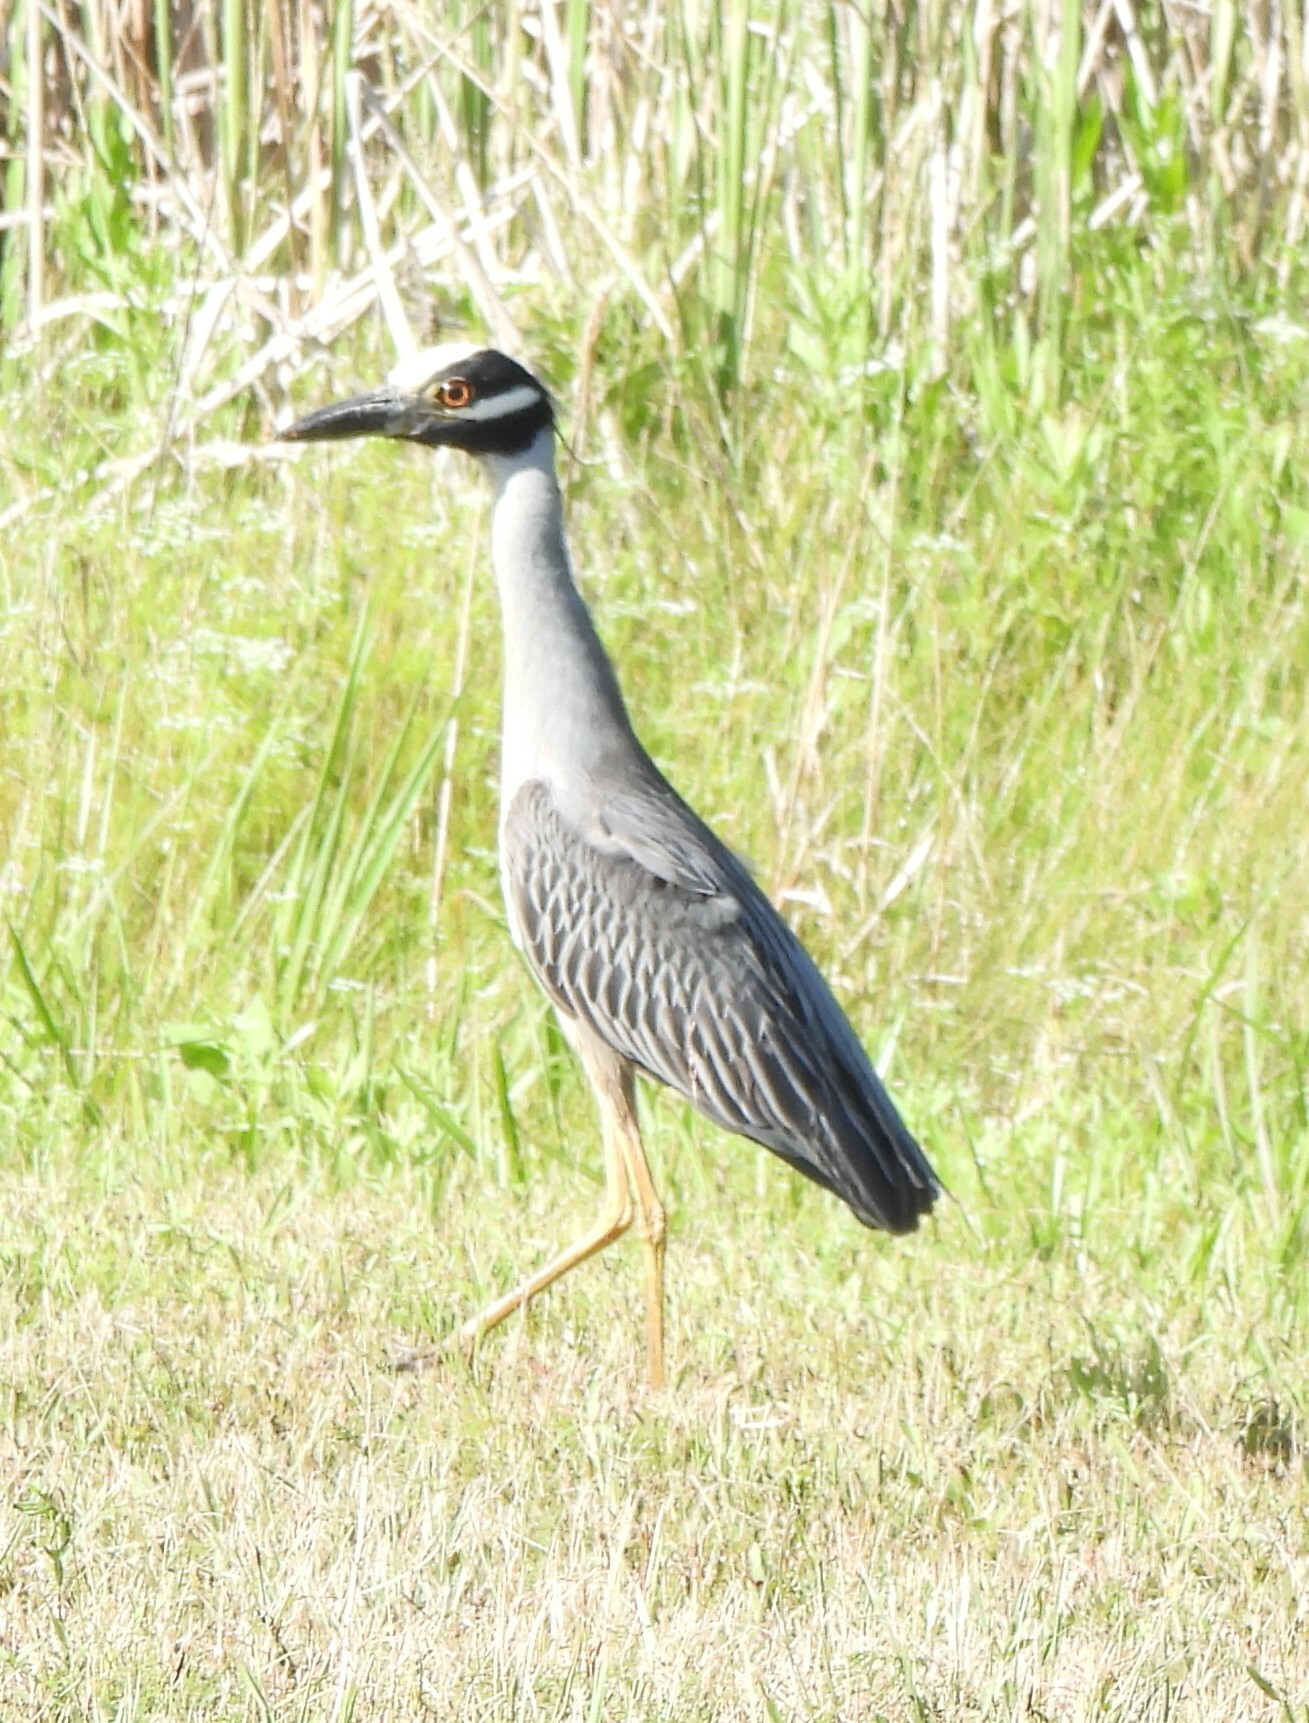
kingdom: Animalia
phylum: Chordata
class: Aves
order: Pelecaniformes
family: Ardeidae
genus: Nyctanassa
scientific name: Nyctanassa violacea
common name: Yellow-crowned night heron
